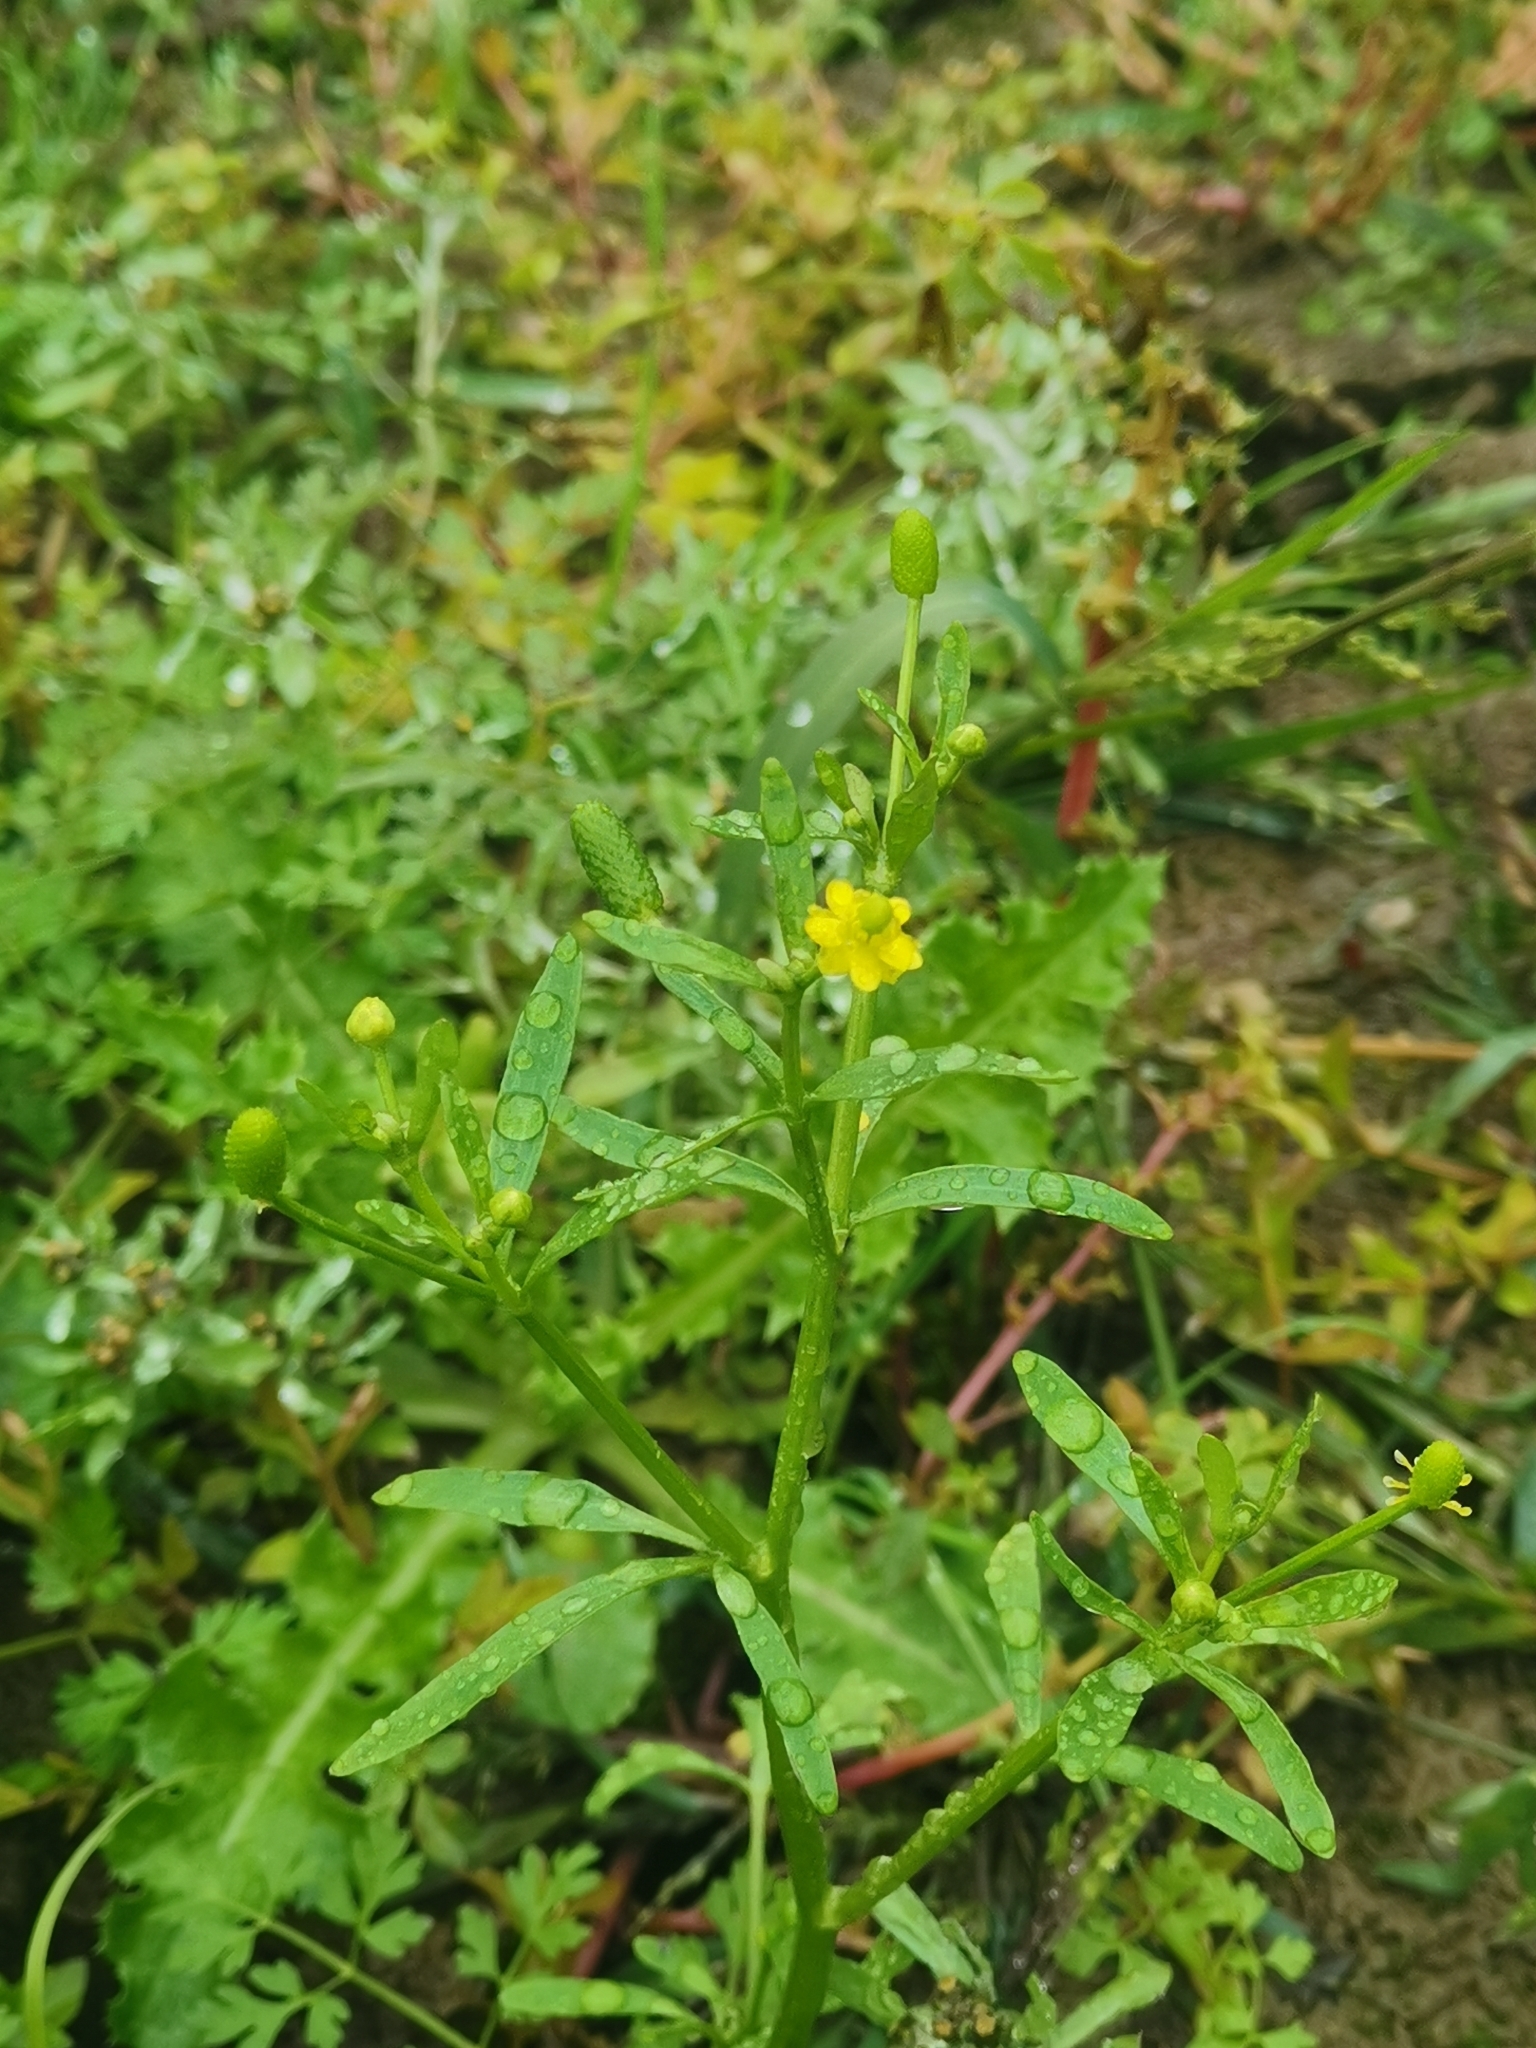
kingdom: Plantae
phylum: Tracheophyta
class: Magnoliopsida
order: Ranunculales
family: Ranunculaceae
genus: Ranunculus
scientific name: Ranunculus sceleratus
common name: Celery-leaved buttercup
